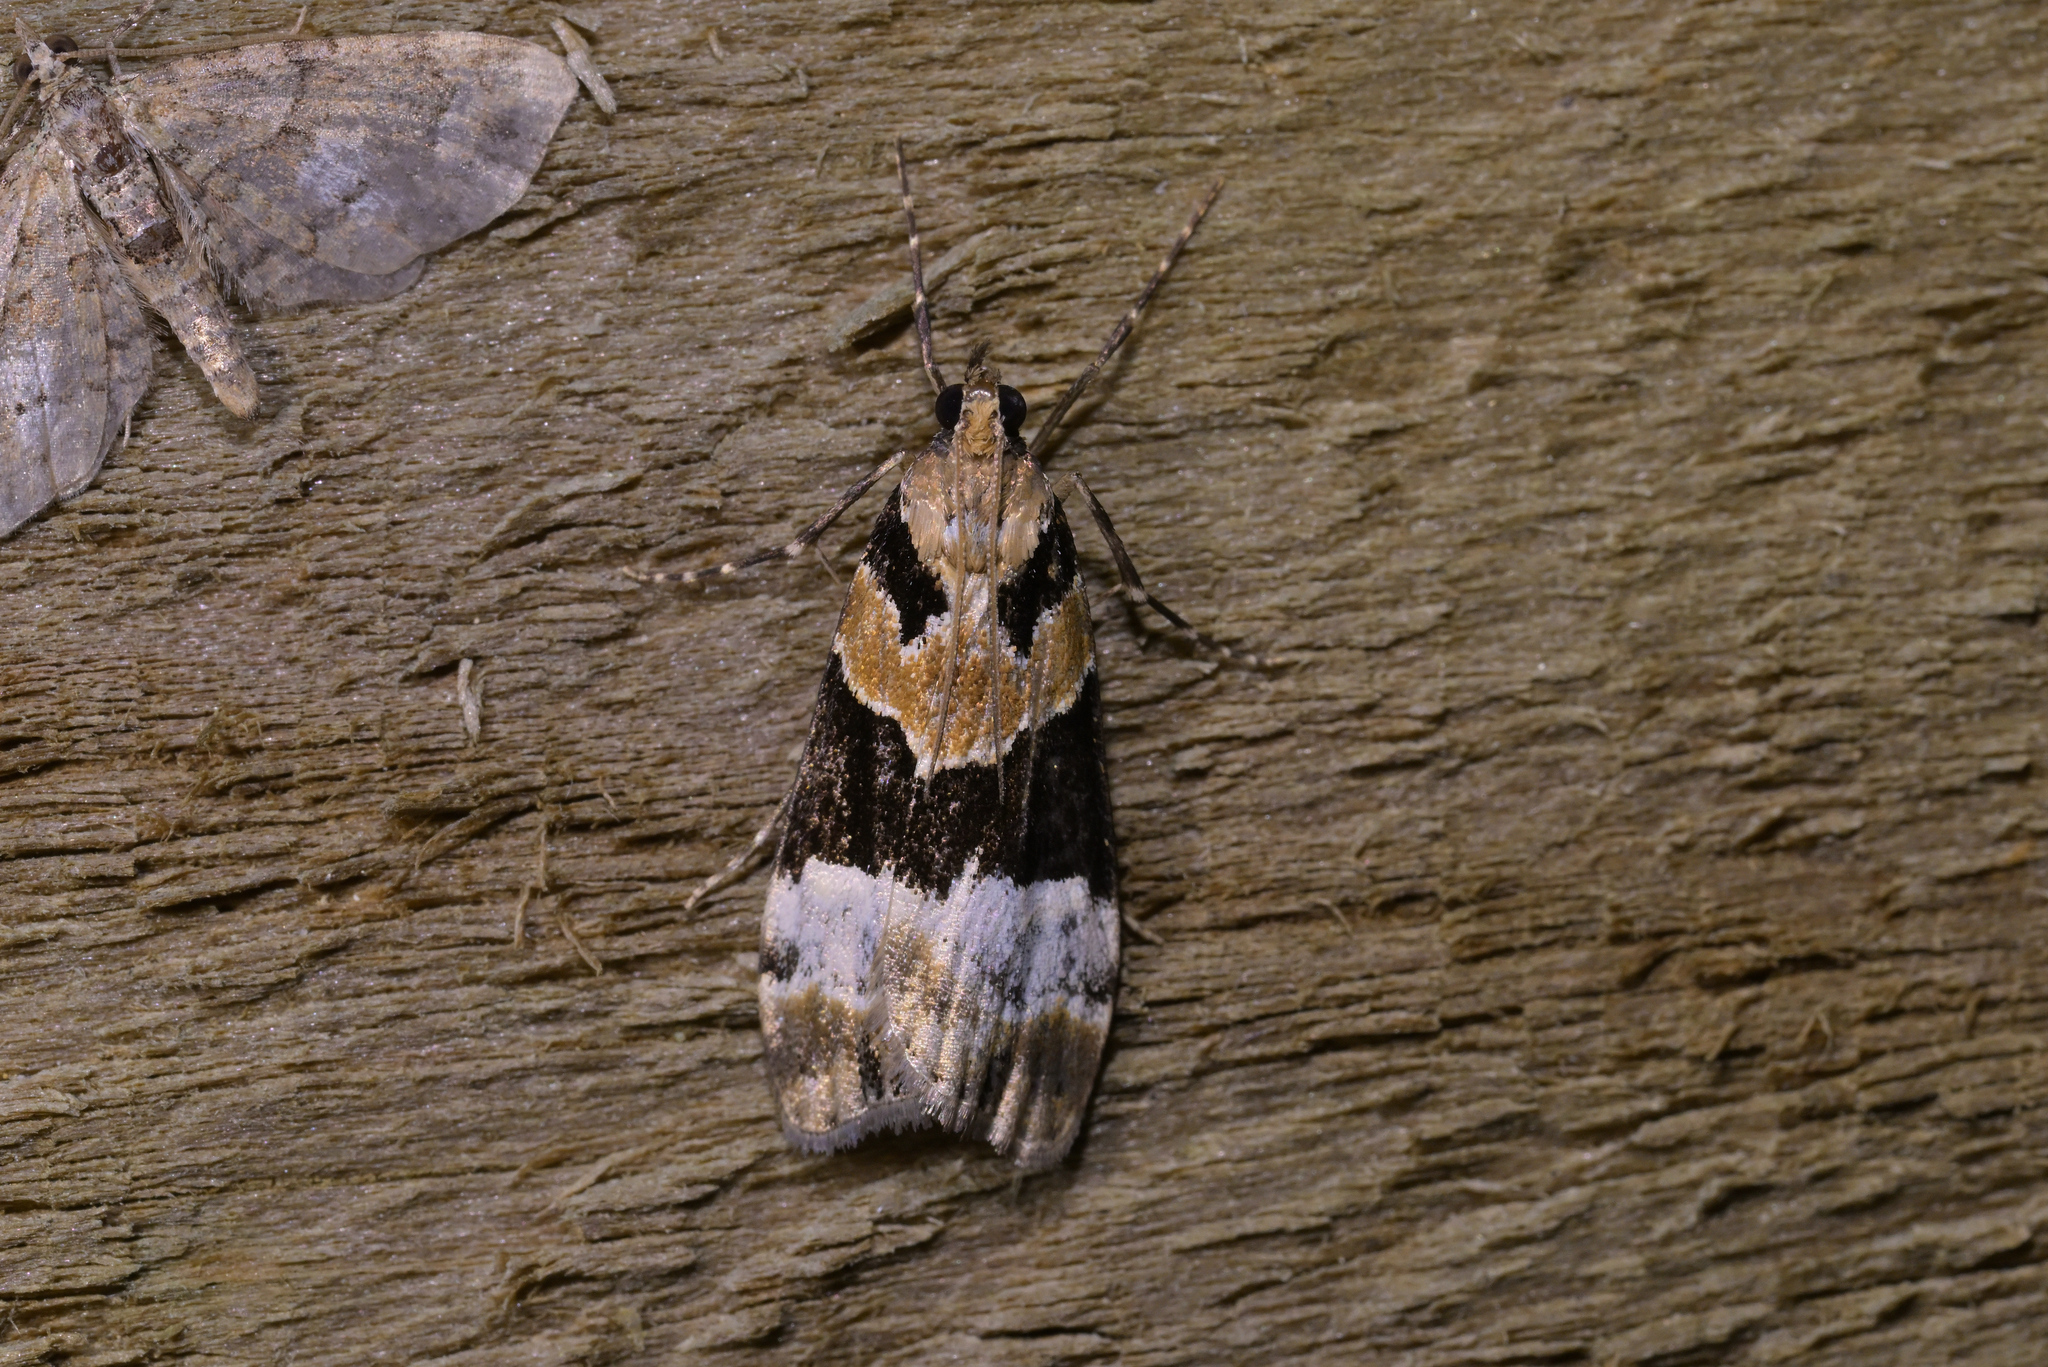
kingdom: Animalia
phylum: Arthropoda
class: Insecta
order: Lepidoptera
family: Crambidae
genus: Eudonia
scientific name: Eudonia aspidota
